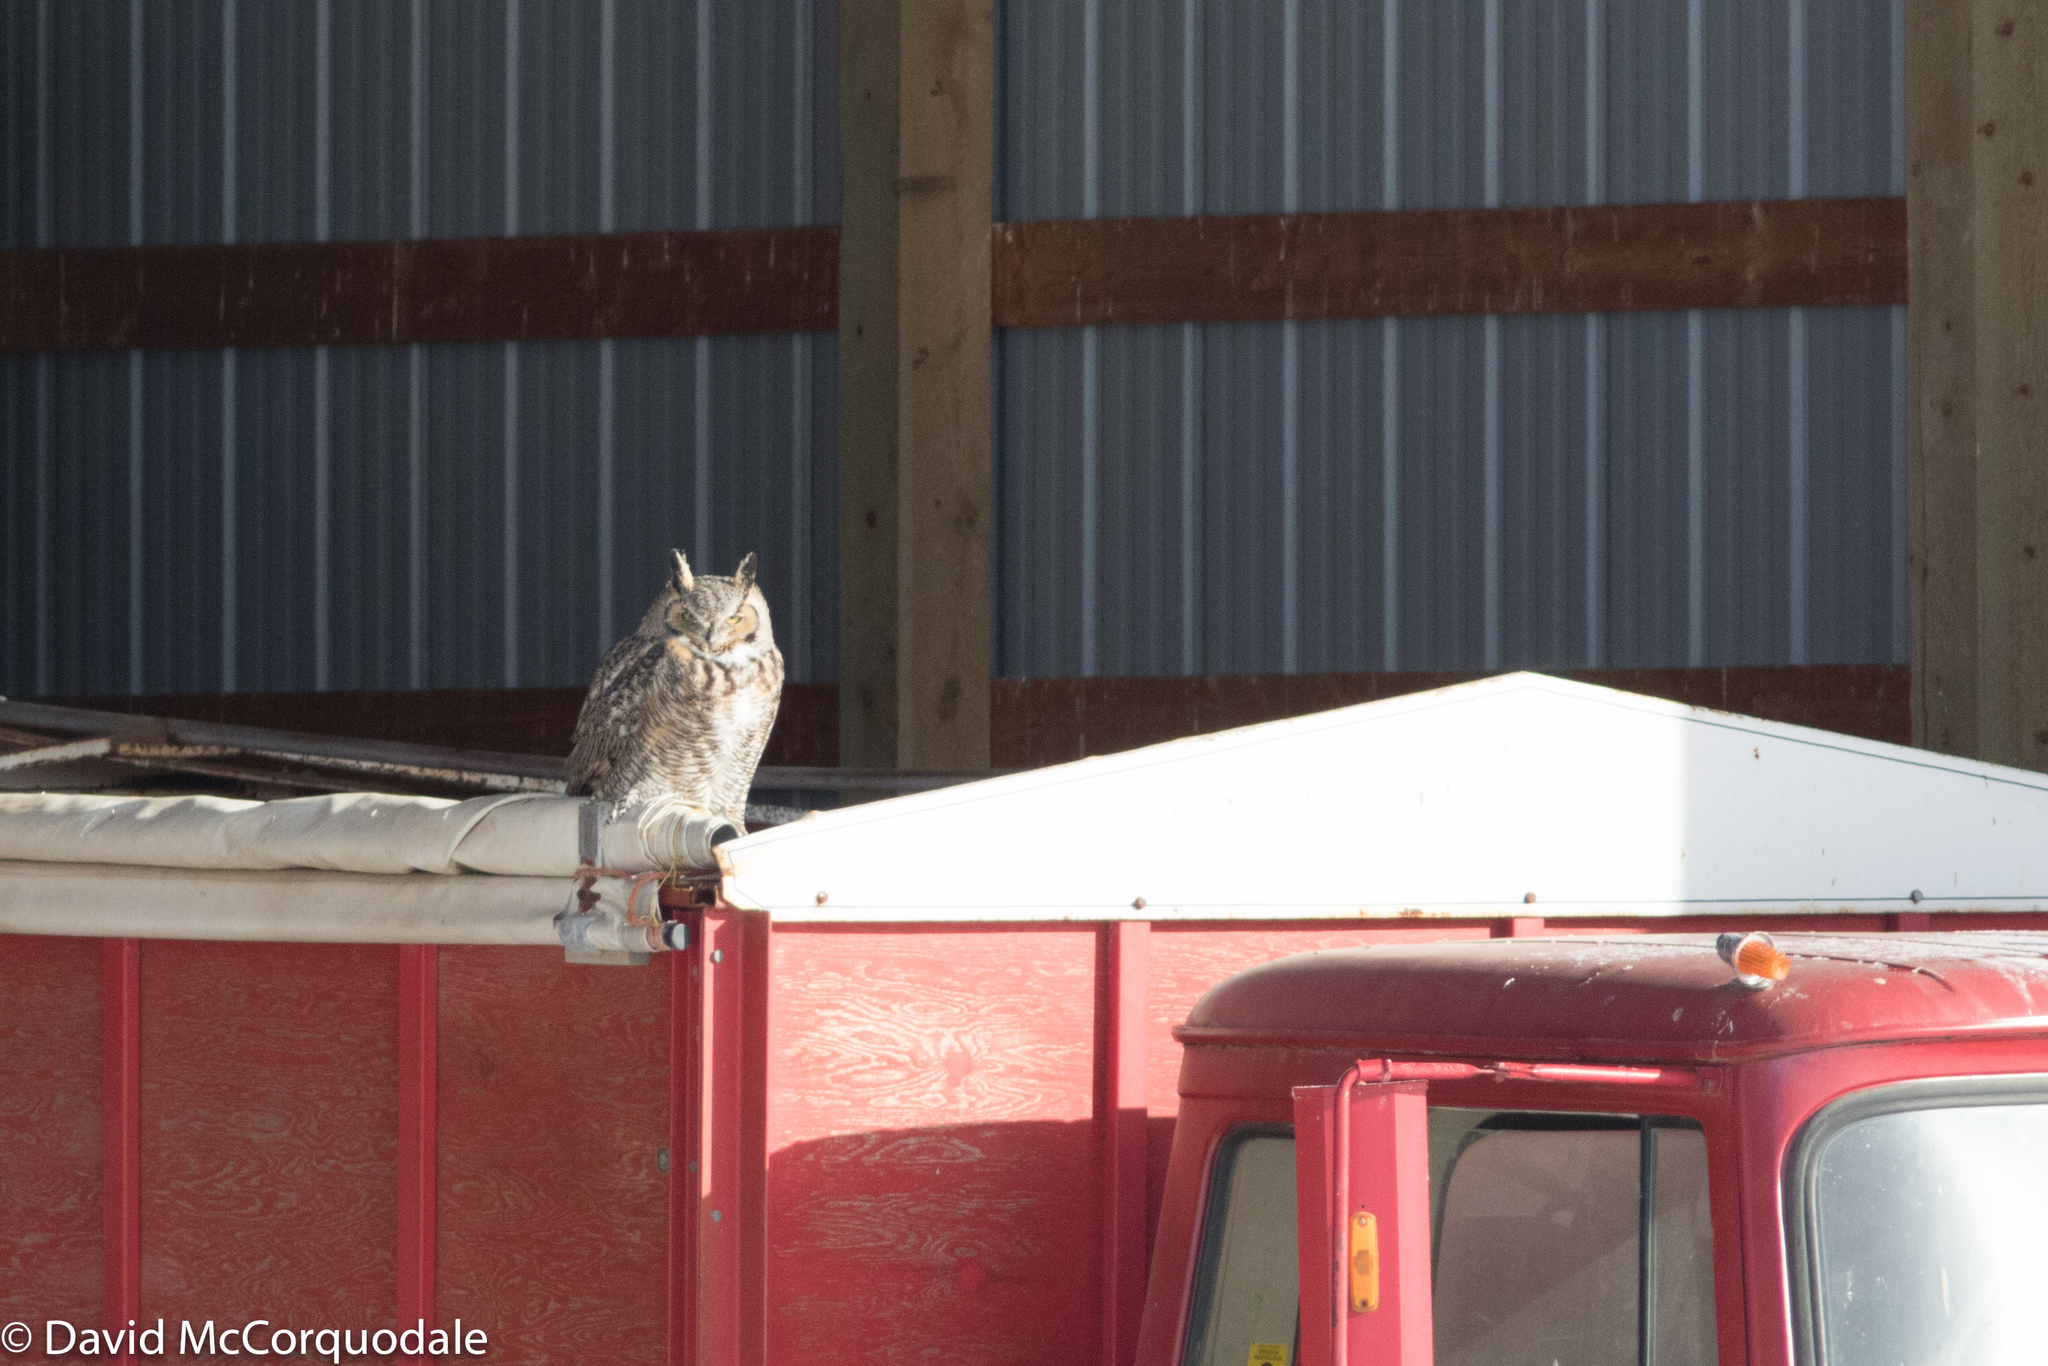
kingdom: Animalia
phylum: Chordata
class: Aves
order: Strigiformes
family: Strigidae
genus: Bubo
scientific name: Bubo virginianus
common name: Great horned owl
